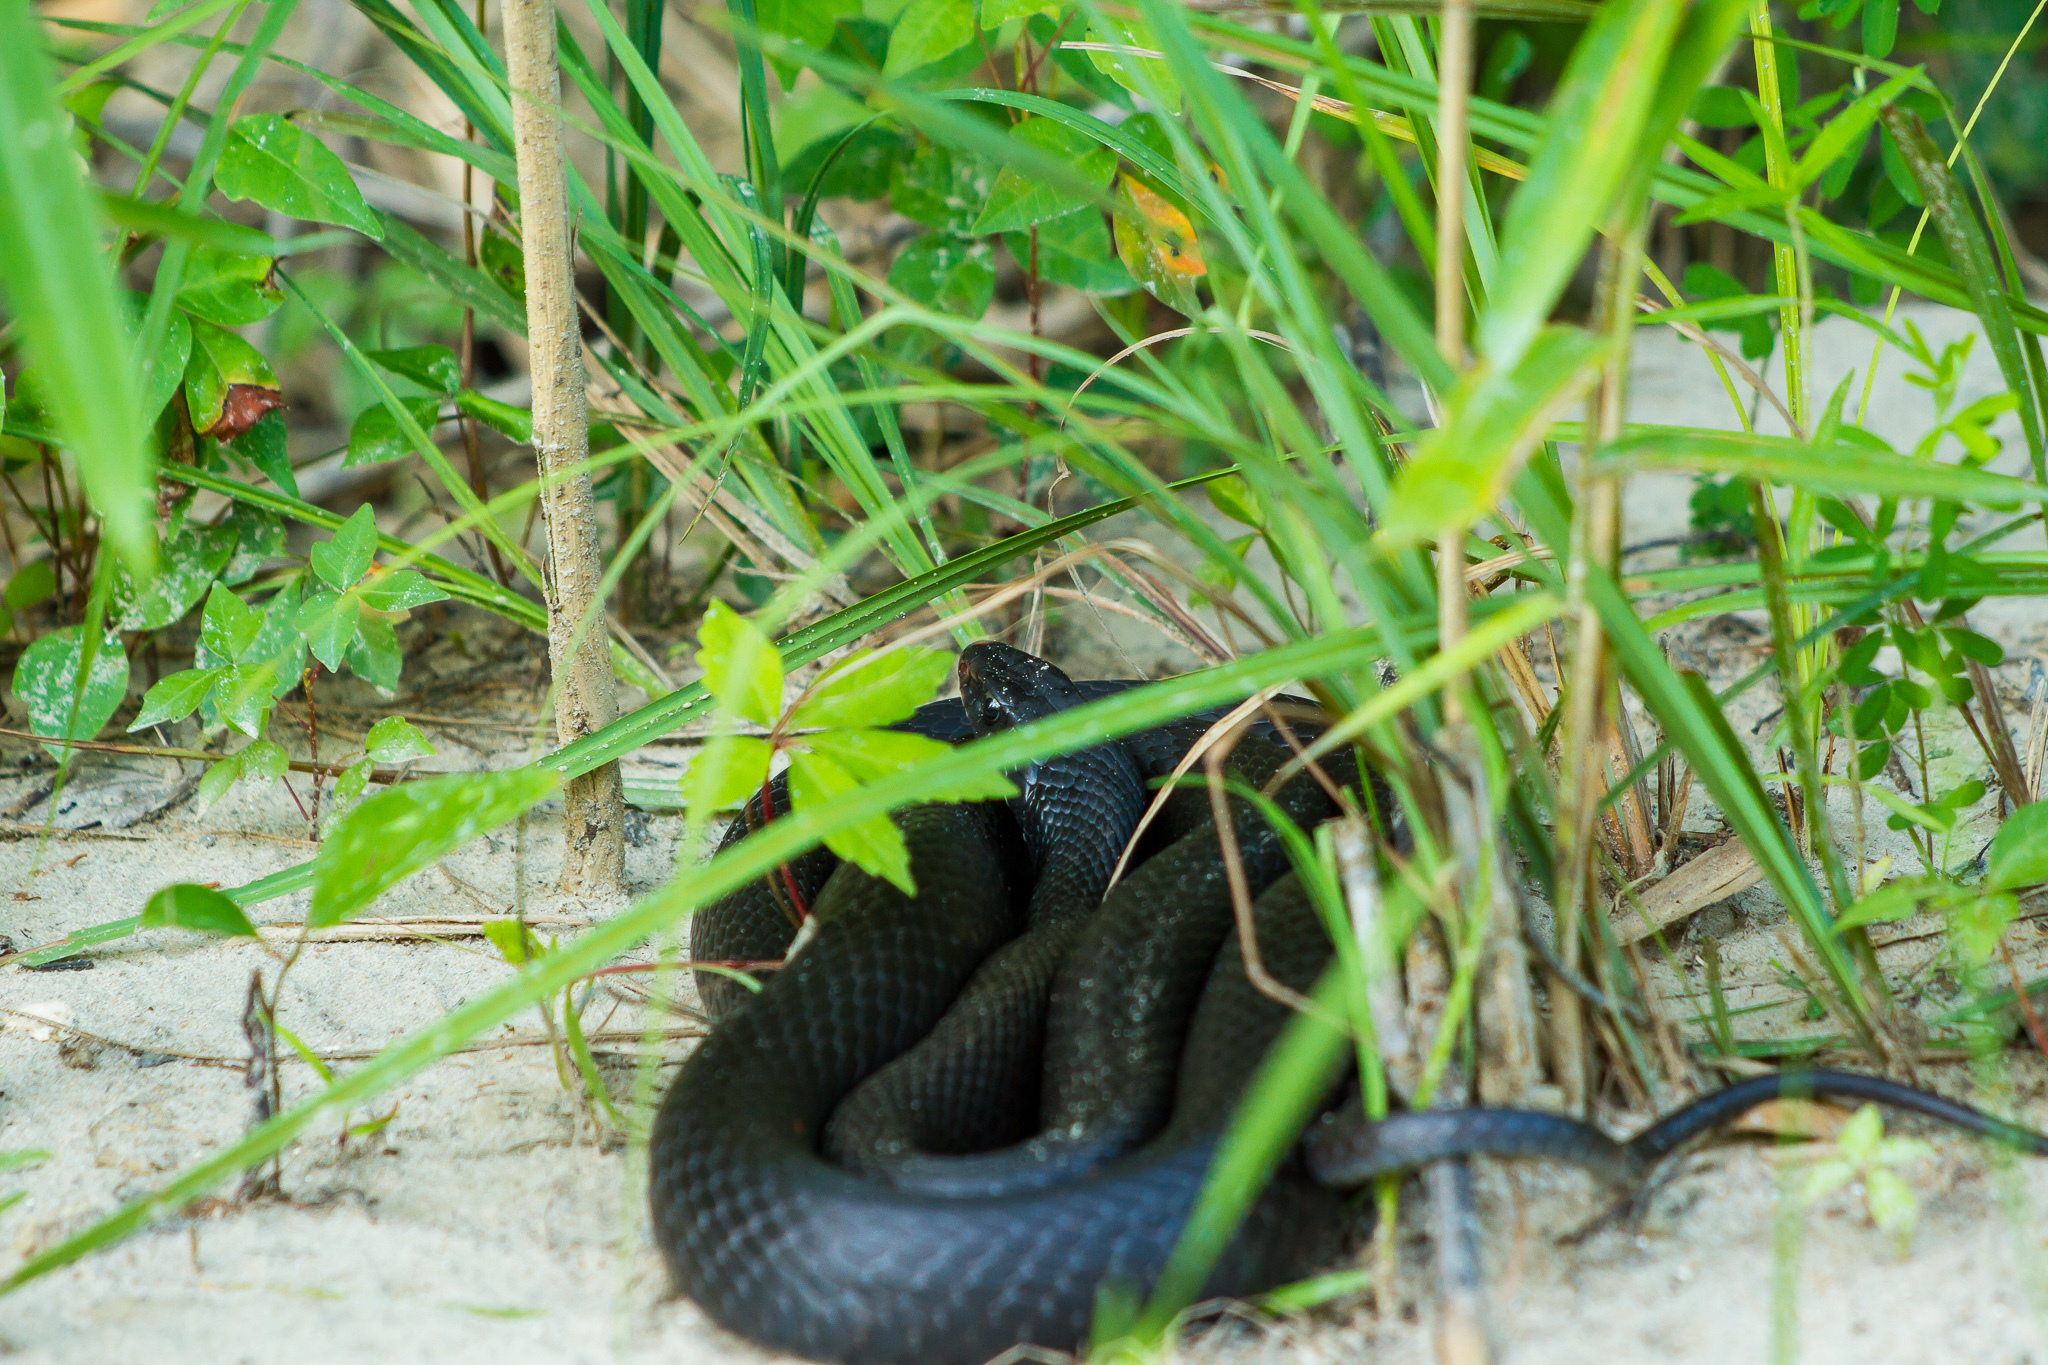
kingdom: Animalia
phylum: Chordata
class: Squamata
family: Colubridae
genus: Coluber
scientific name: Coluber constrictor
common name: Eastern racer
